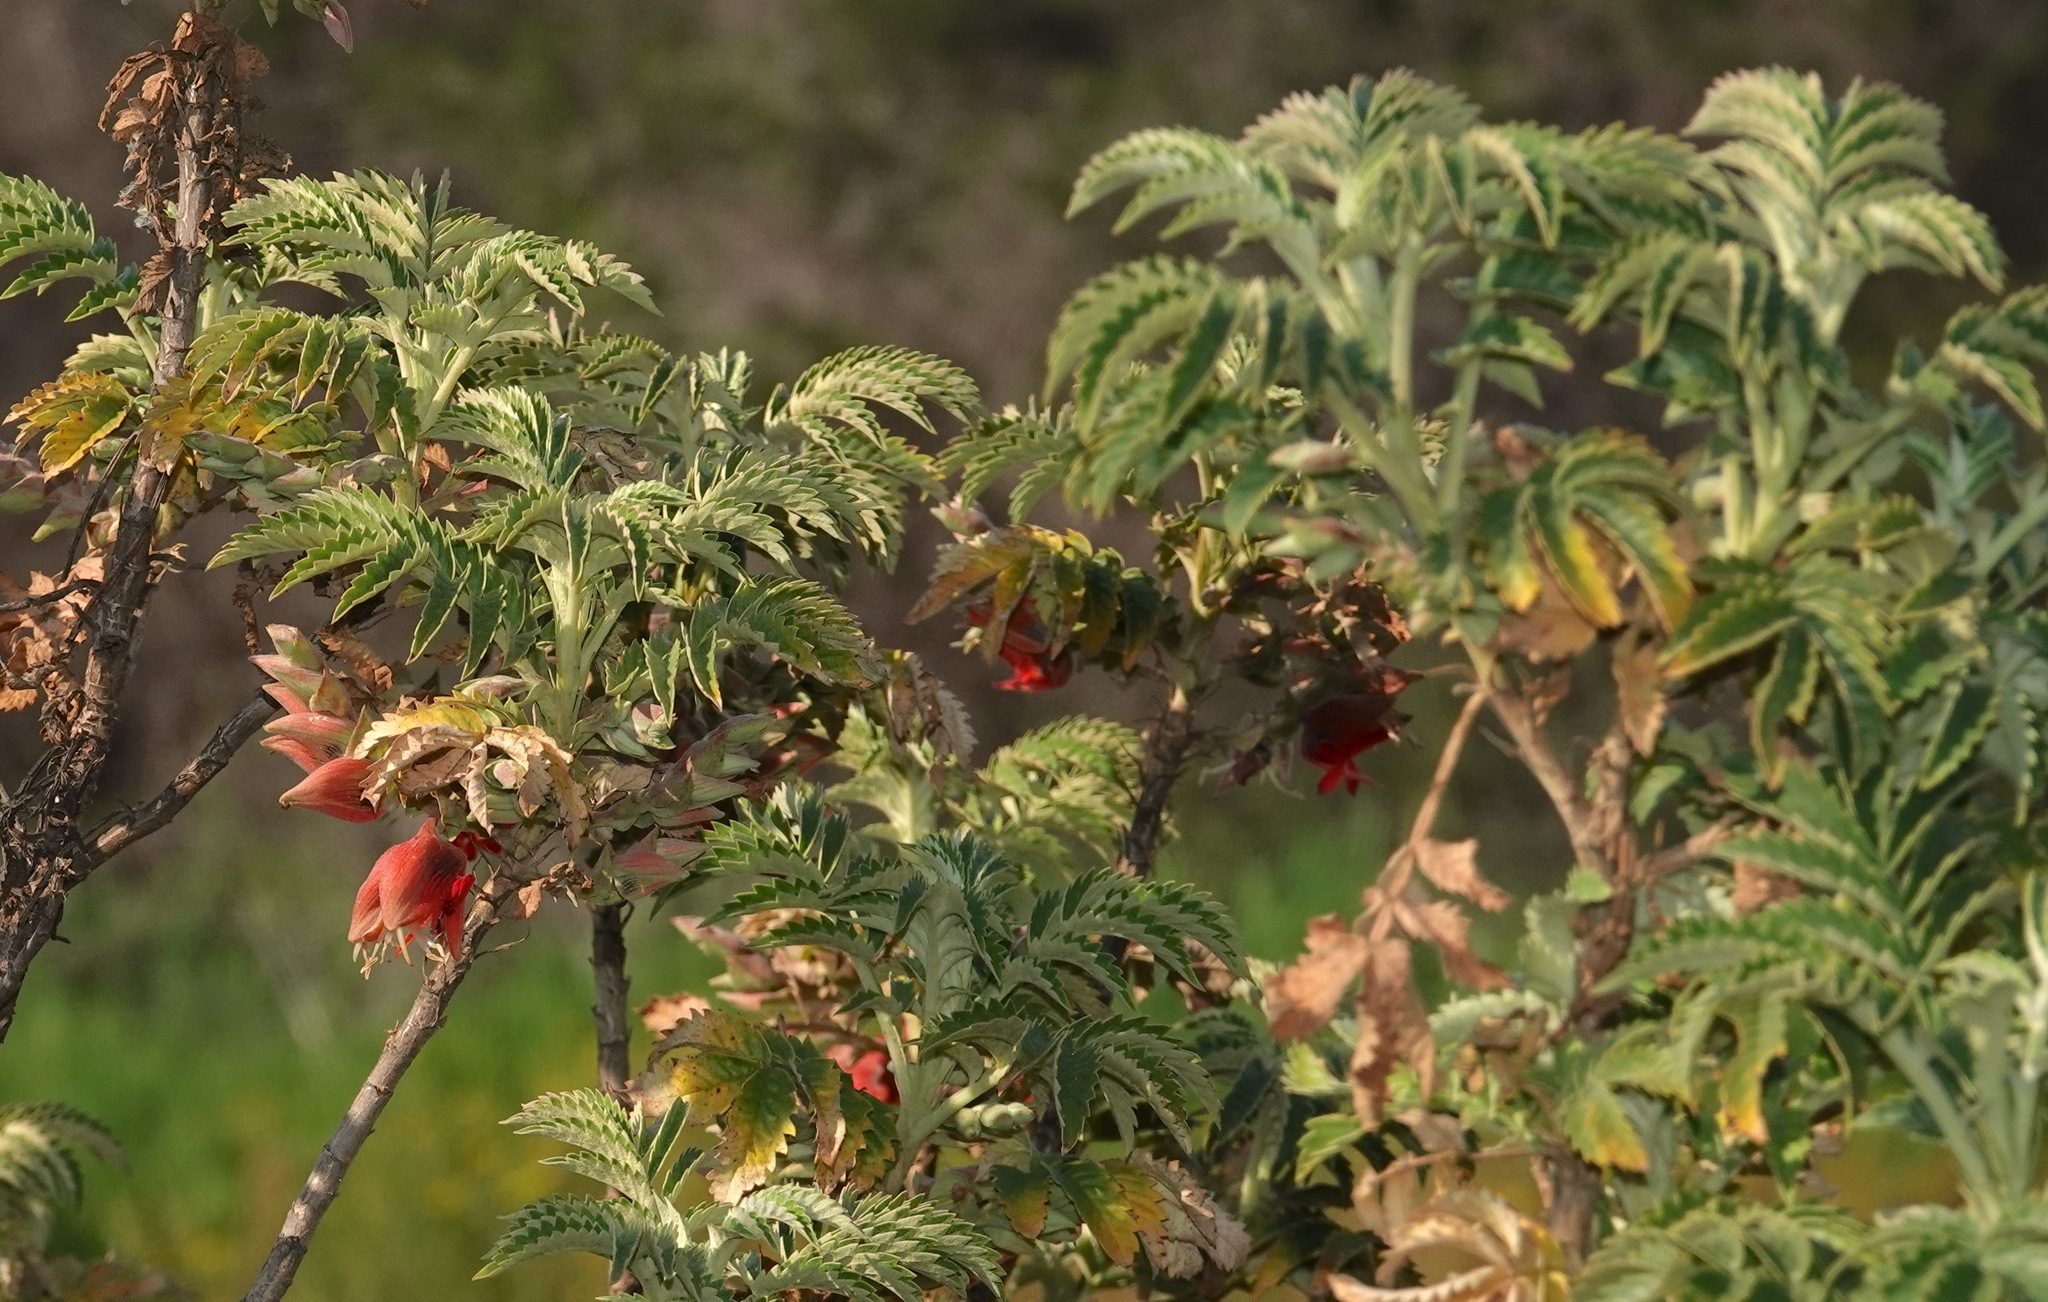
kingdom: Plantae
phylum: Tracheophyta
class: Magnoliopsida
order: Geraniales
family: Melianthaceae
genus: Melianthus
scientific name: Melianthus comosus
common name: Touch-me-not
